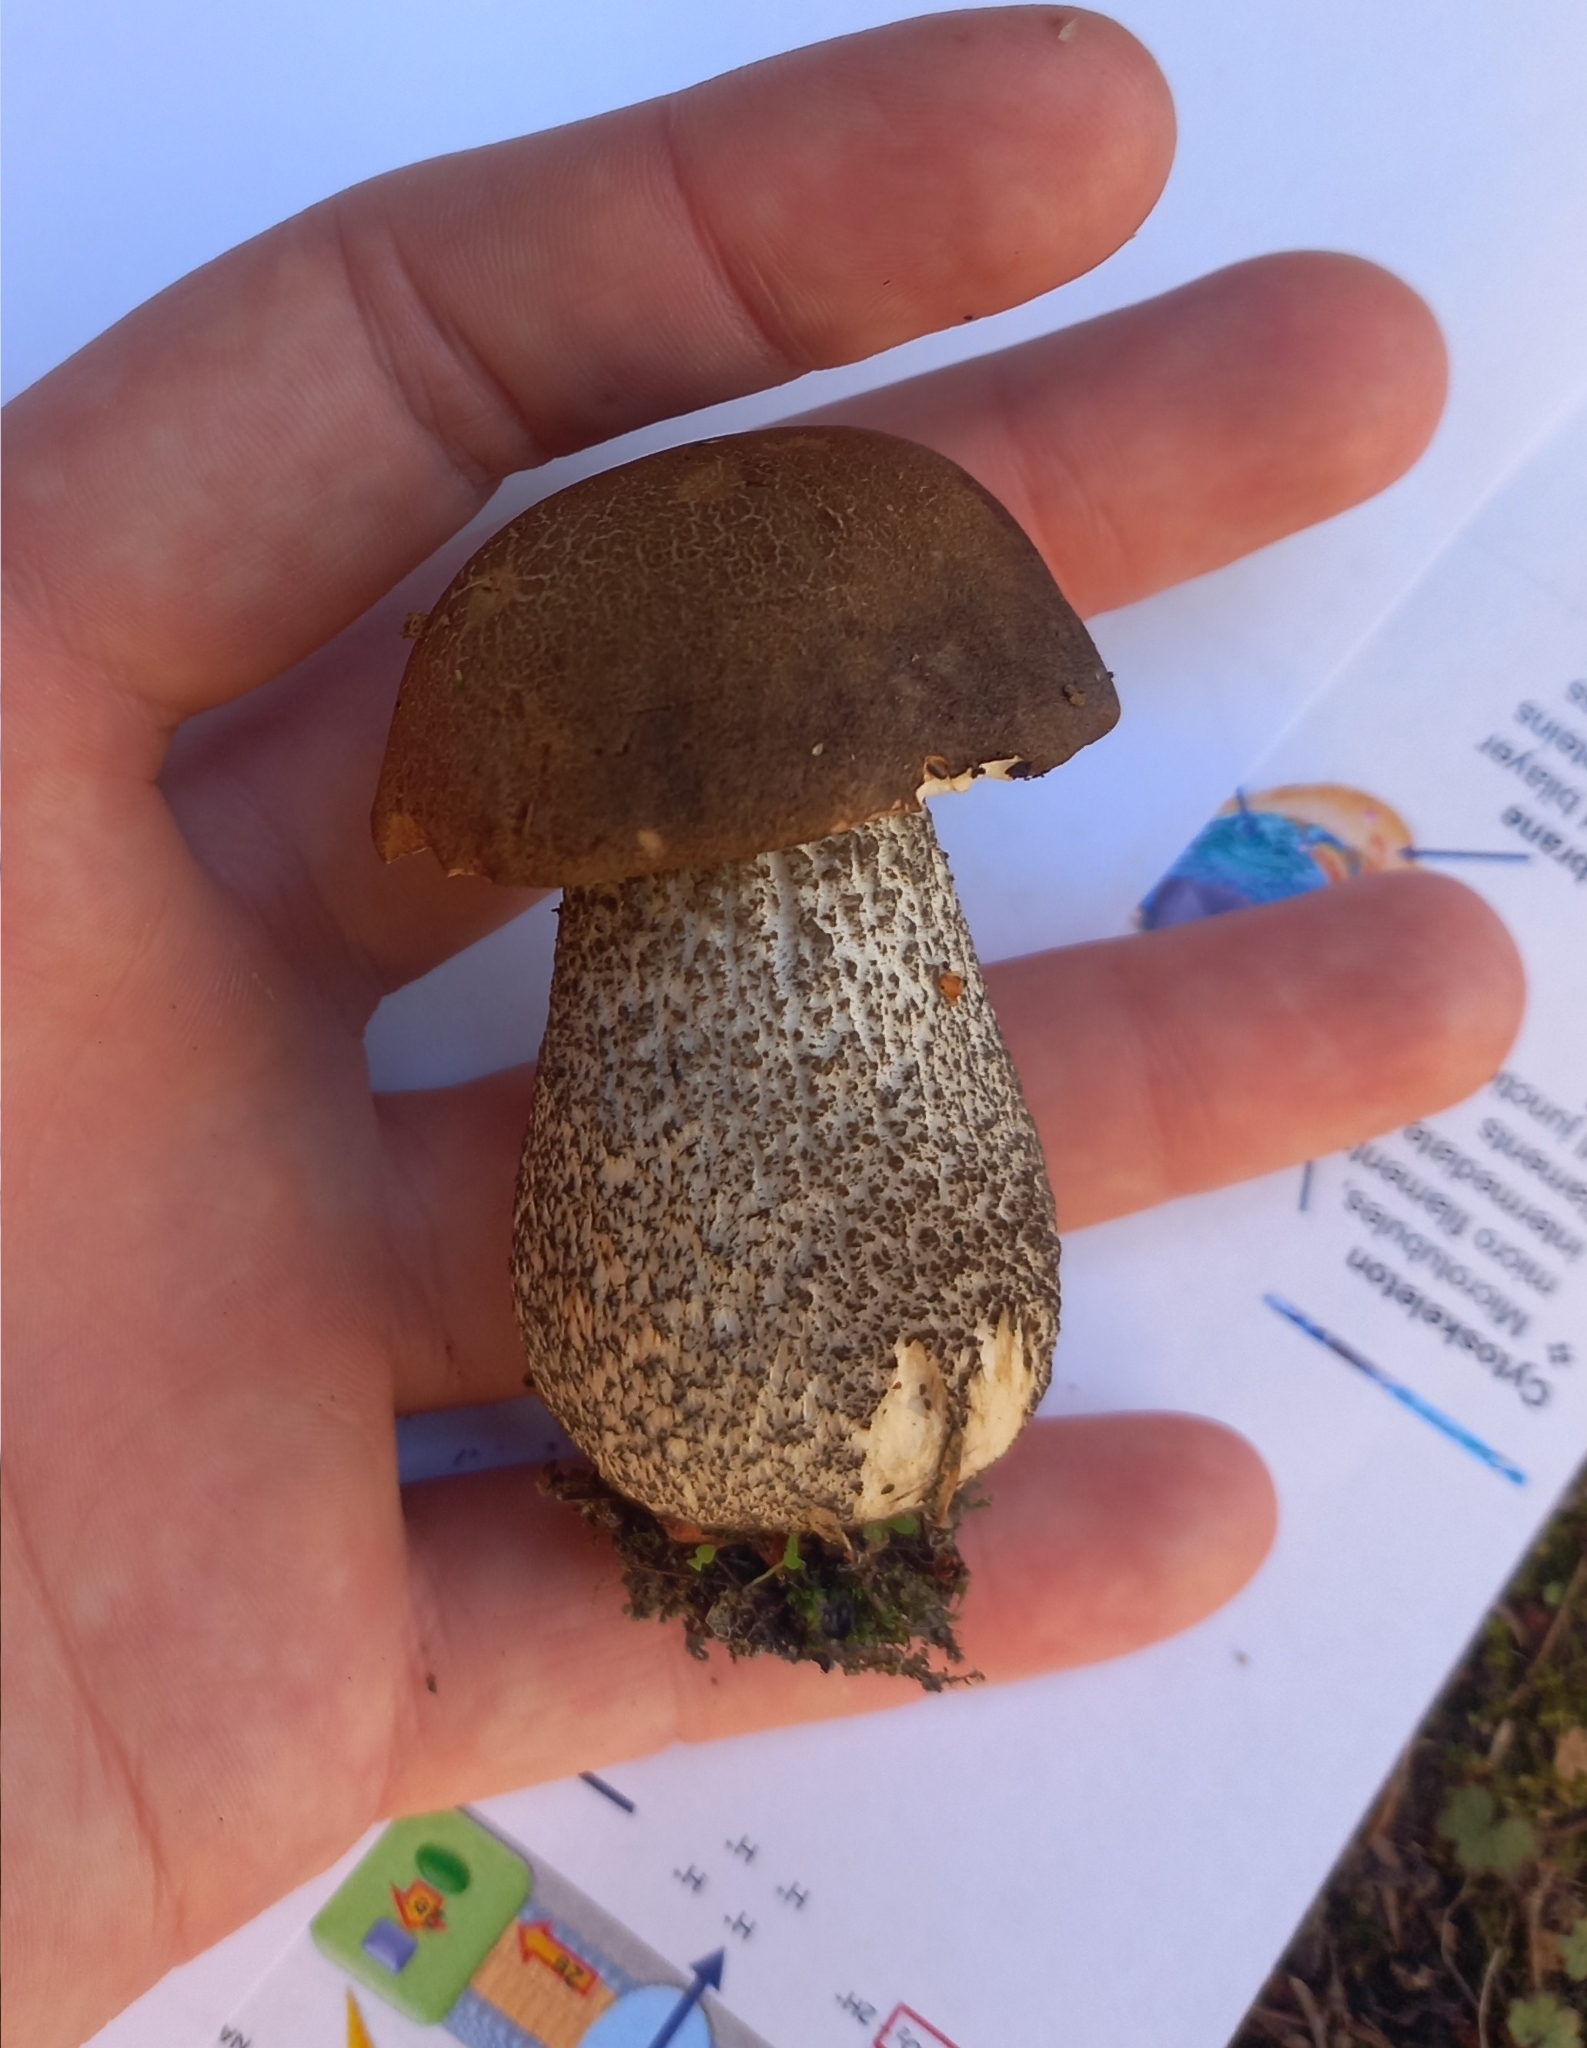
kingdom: Fungi
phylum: Basidiomycota
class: Agaricomycetes
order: Boletales
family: Boletaceae
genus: Leccinum
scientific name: Leccinum scabrum
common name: Blushing bolete
